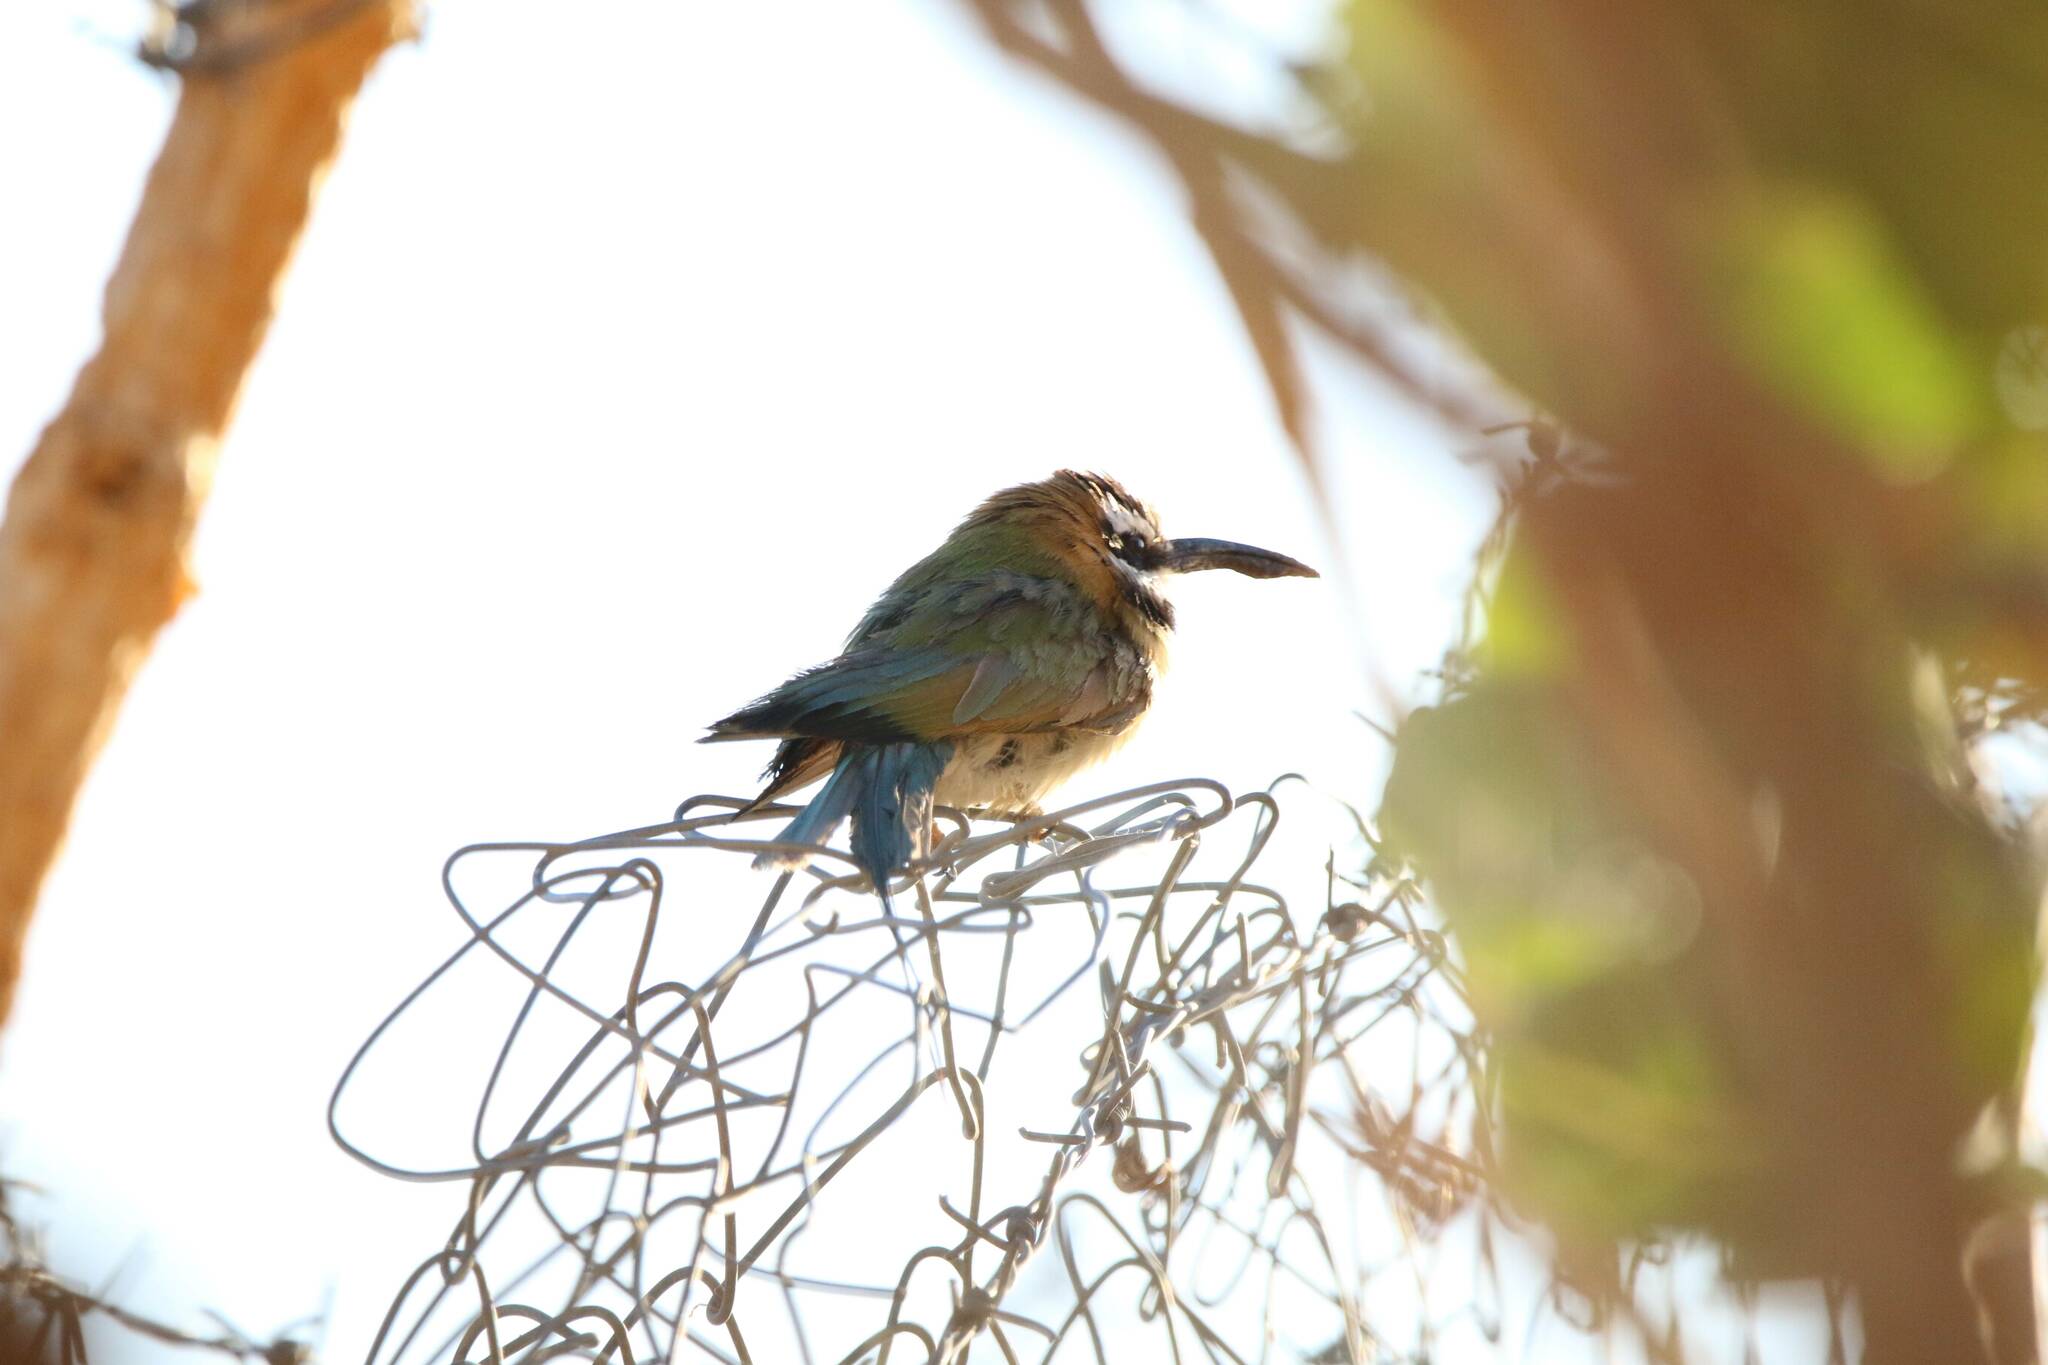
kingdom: Animalia
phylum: Chordata
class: Aves
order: Coraciiformes
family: Meropidae
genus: Merops
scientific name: Merops albicollis
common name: White-throated bee-eater
